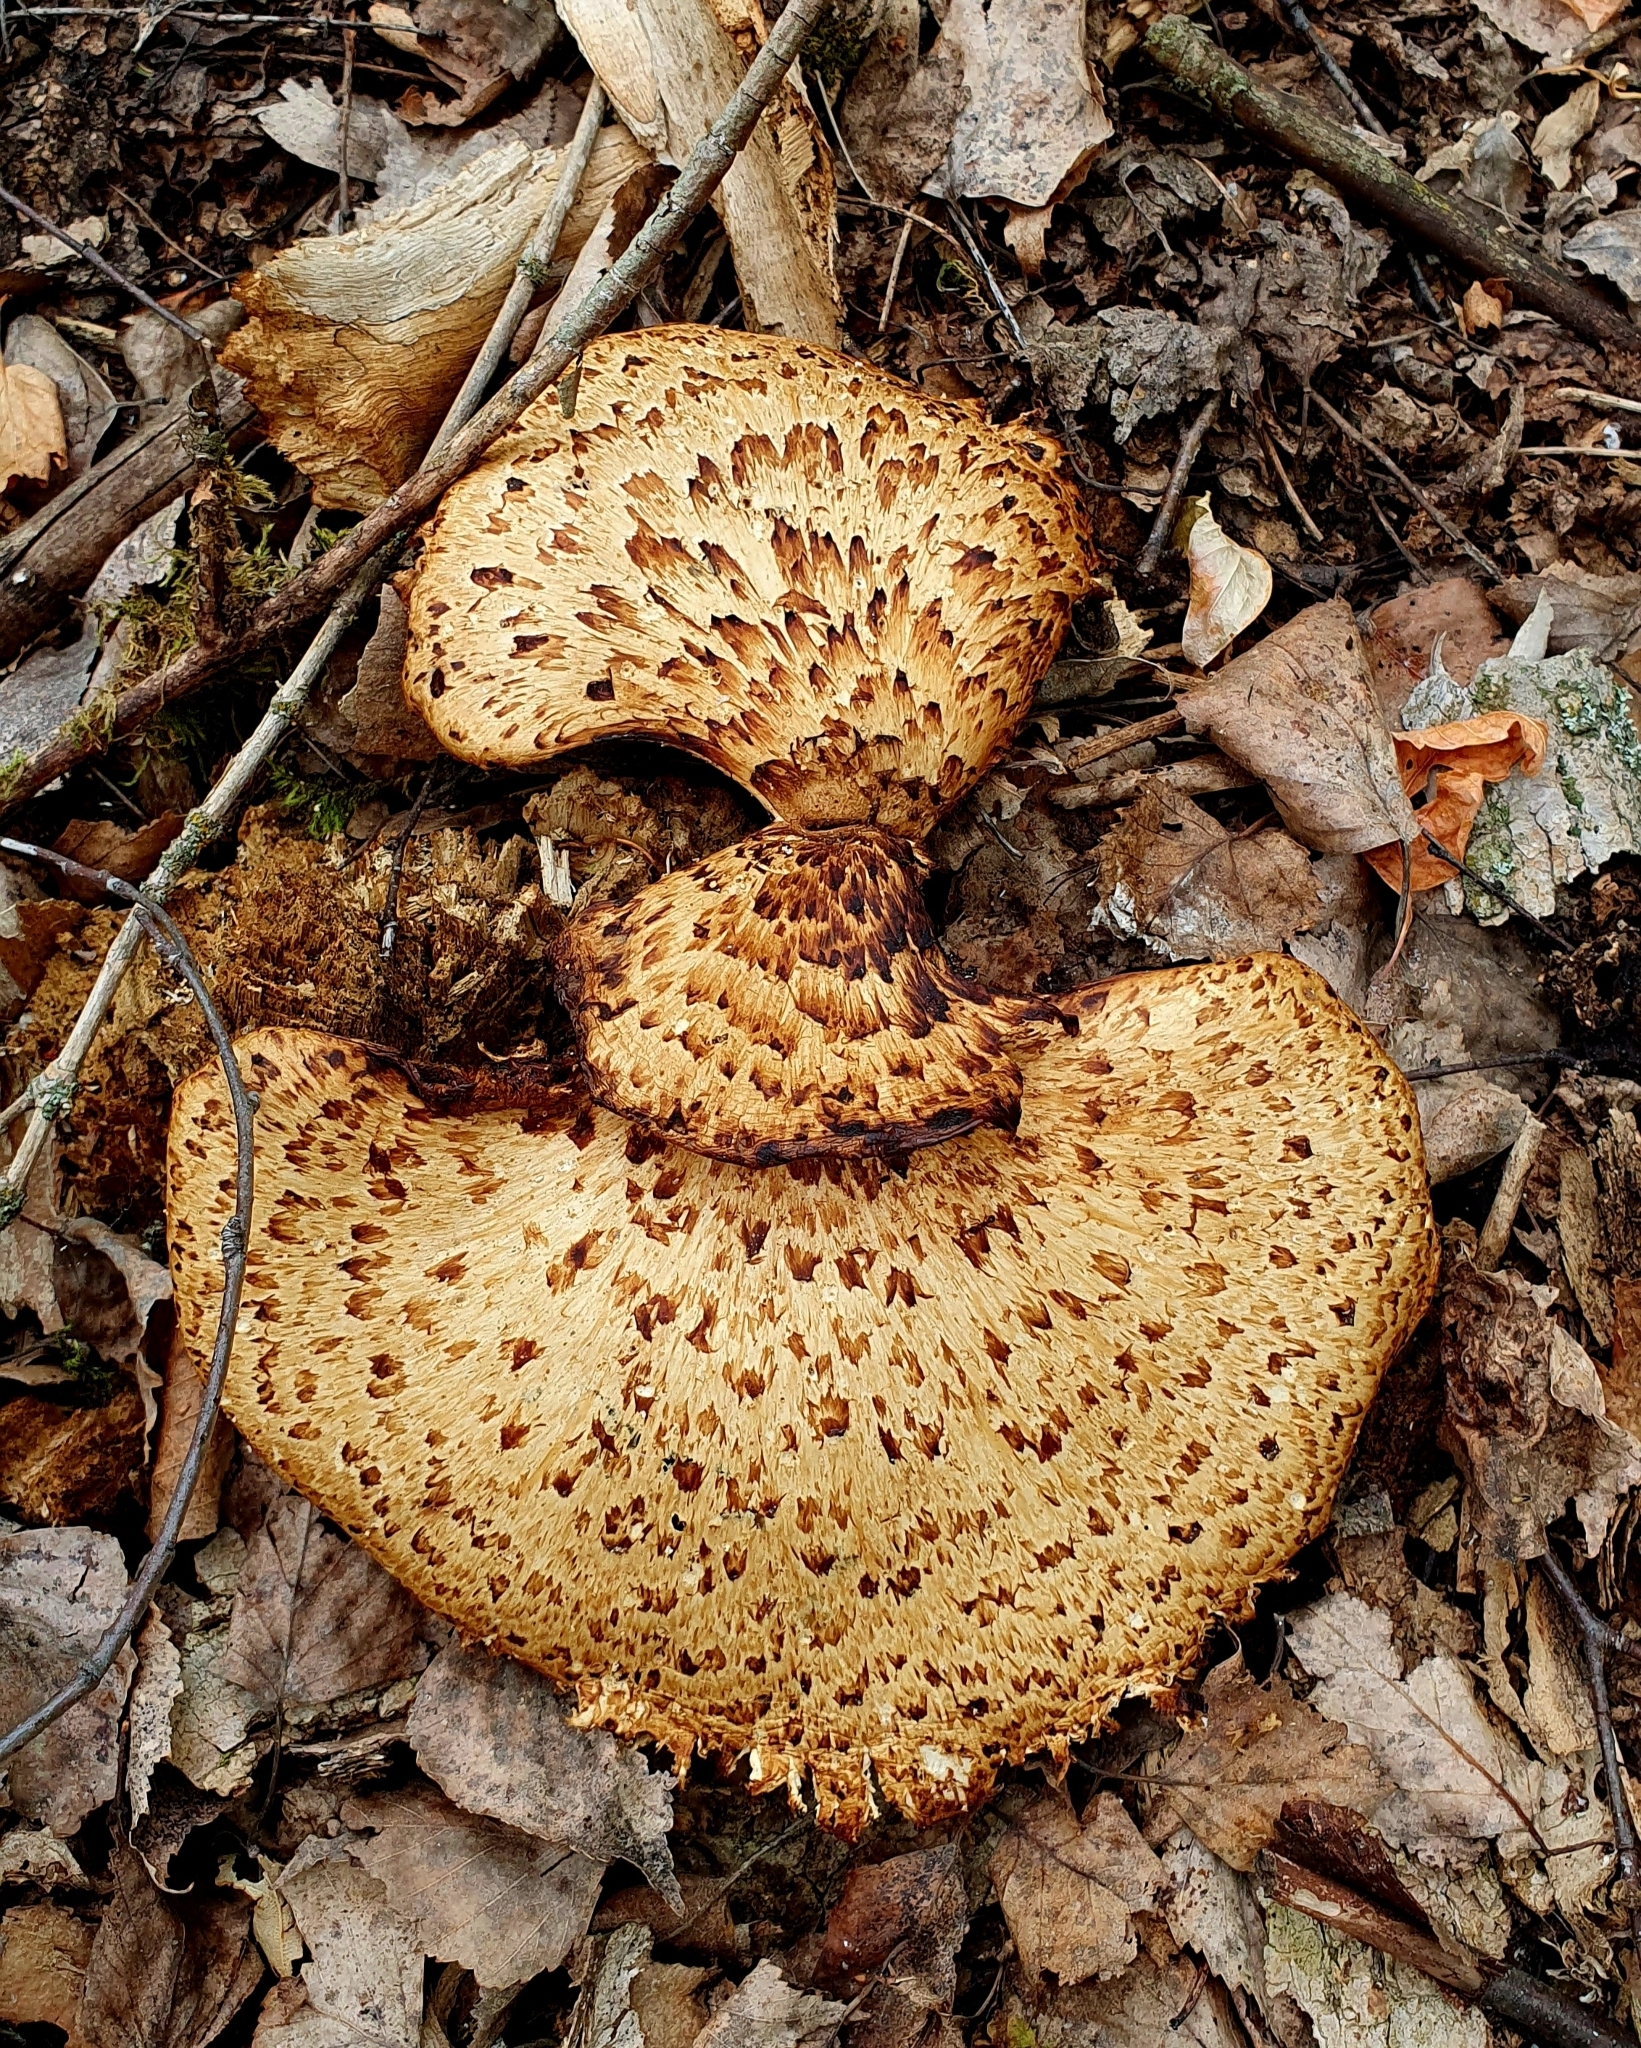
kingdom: Fungi
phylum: Basidiomycota
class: Agaricomycetes
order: Polyporales
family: Polyporaceae
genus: Cerioporus
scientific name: Cerioporus squamosus
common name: Dryad's saddle
